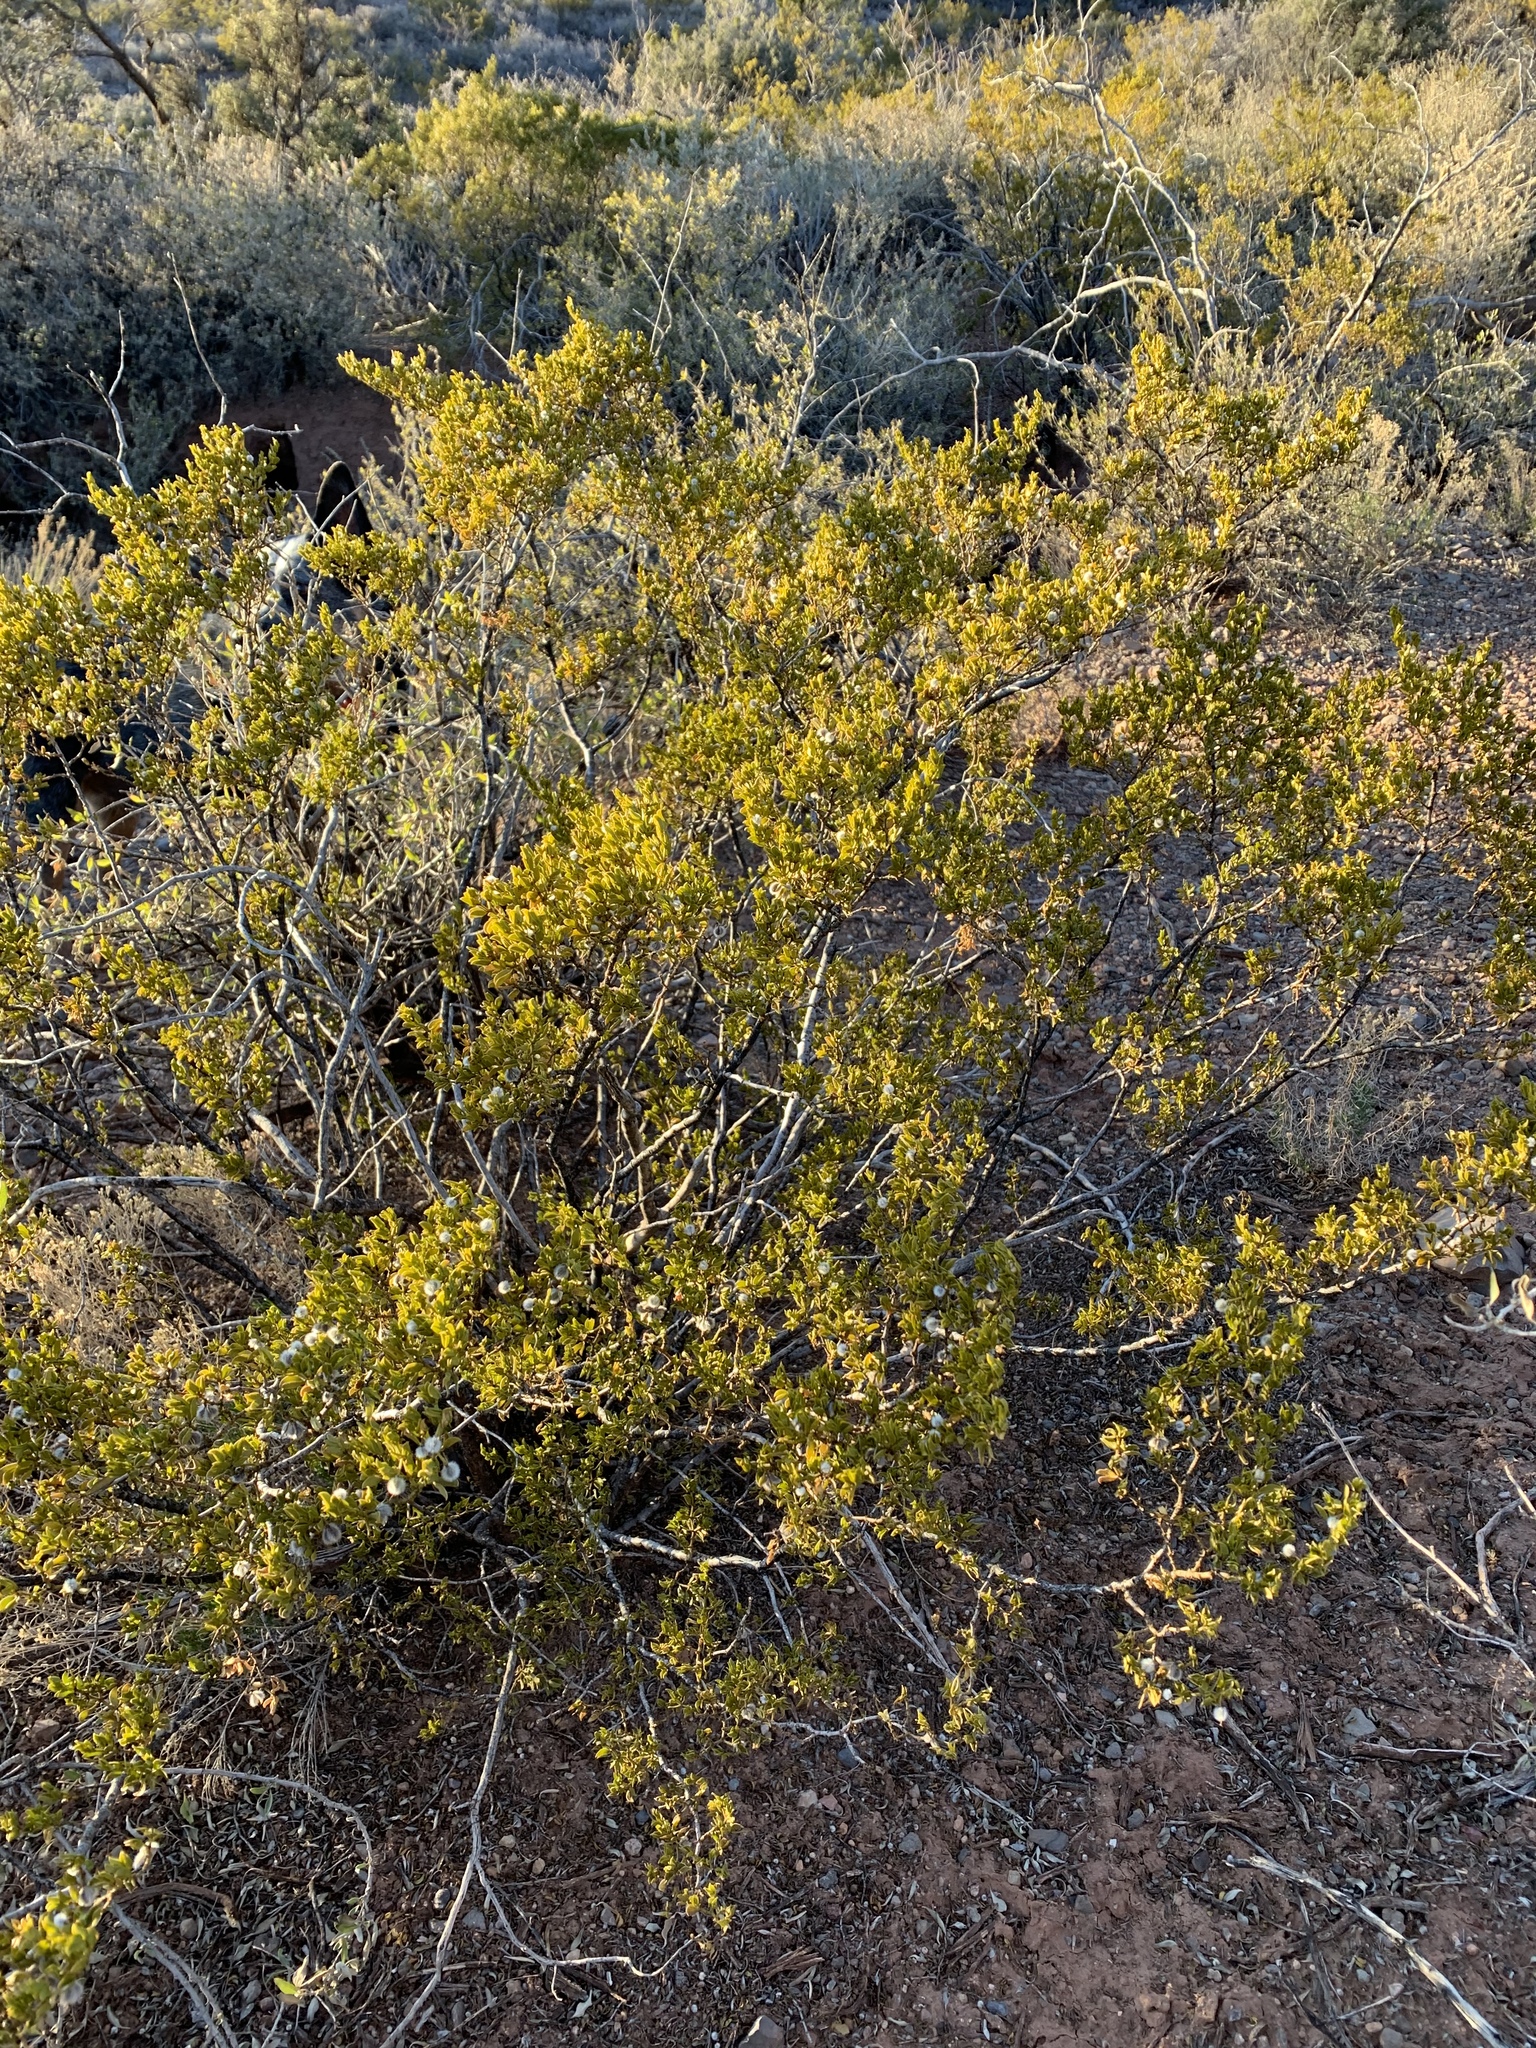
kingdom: Plantae
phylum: Tracheophyta
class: Magnoliopsida
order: Zygophyllales
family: Zygophyllaceae
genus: Larrea
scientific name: Larrea tridentata
